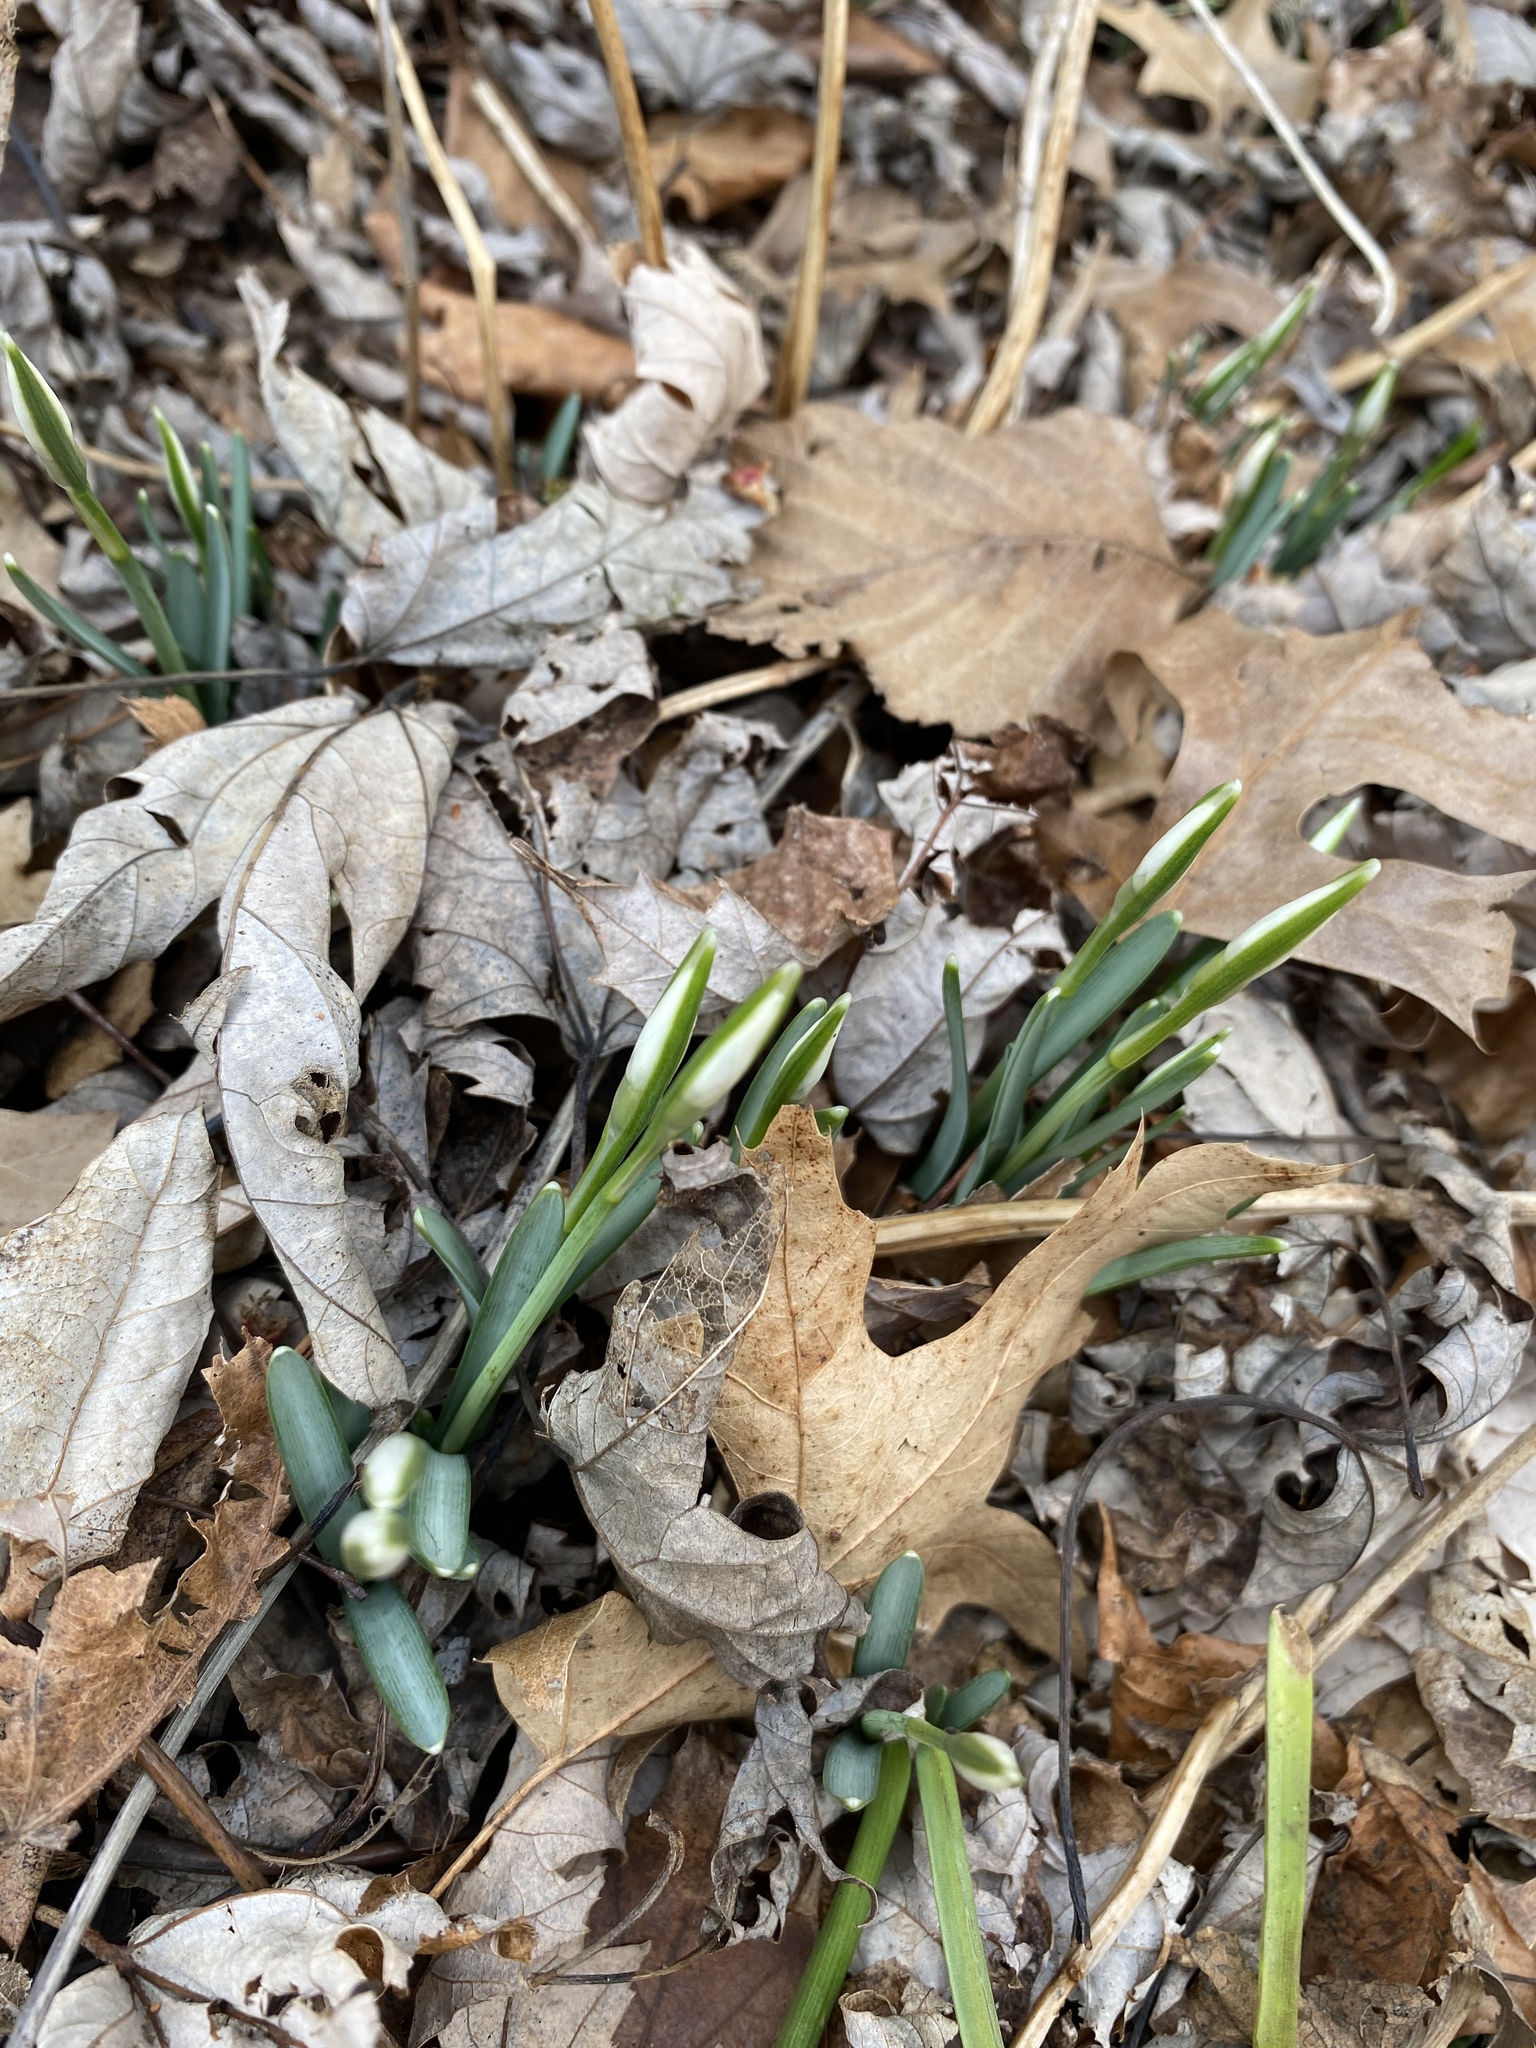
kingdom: Plantae
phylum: Tracheophyta
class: Liliopsida
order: Asparagales
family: Amaryllidaceae
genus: Galanthus
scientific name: Galanthus nivalis
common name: Snowdrop
